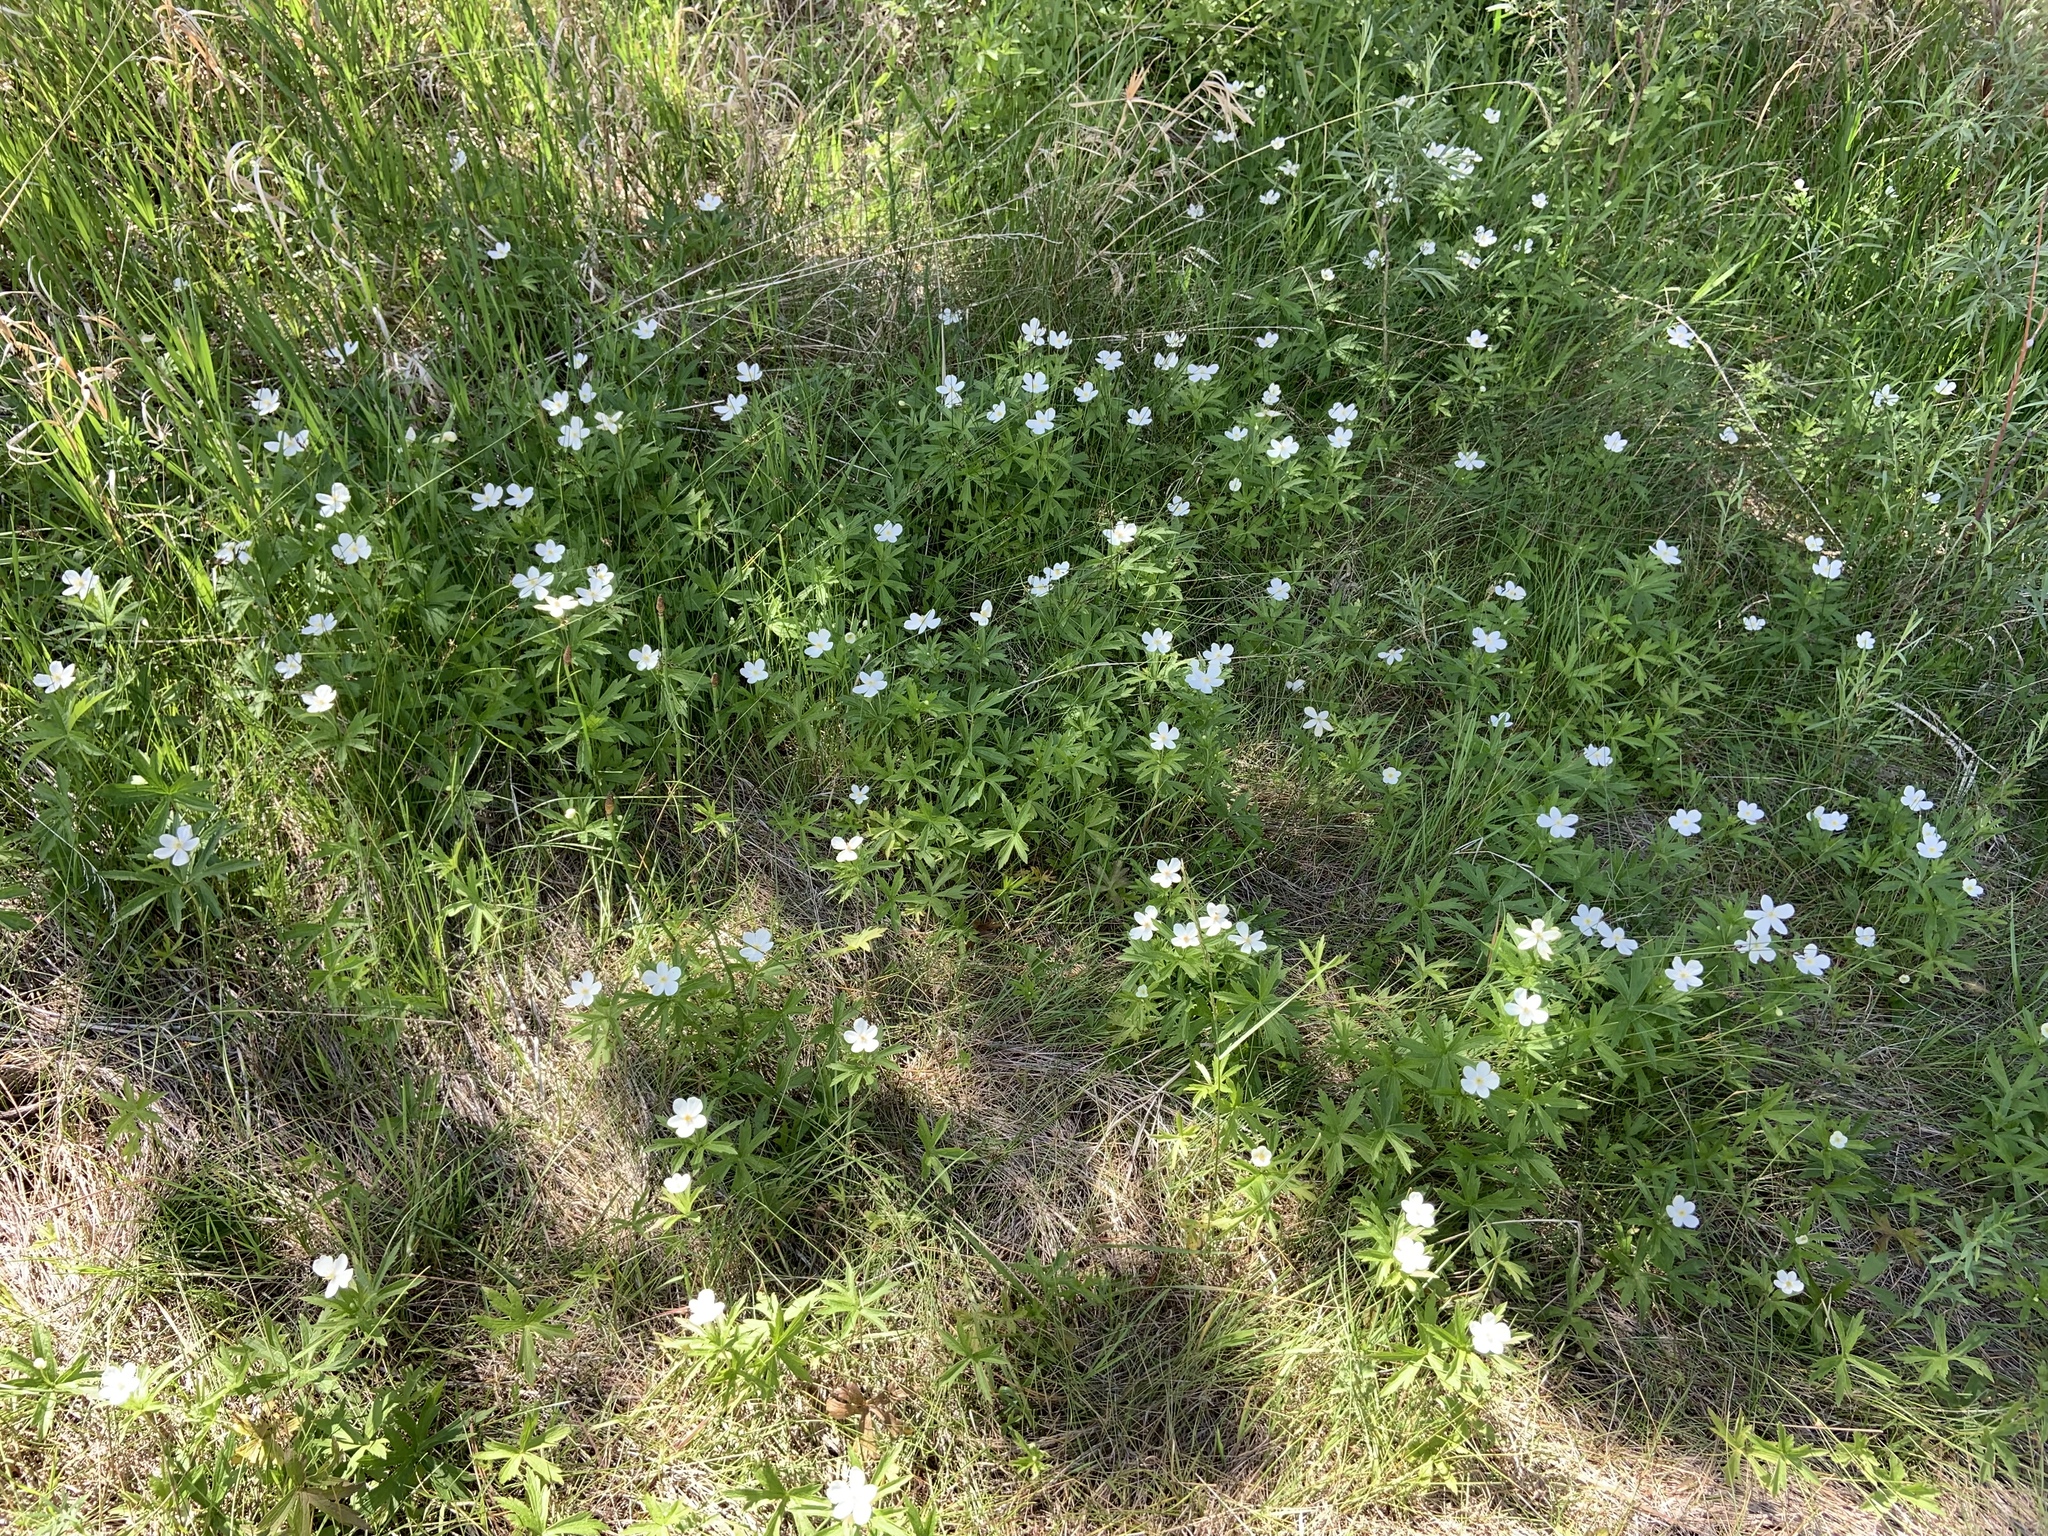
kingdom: Plantae
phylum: Tracheophyta
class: Magnoliopsida
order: Ranunculales
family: Ranunculaceae
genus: Anemonastrum
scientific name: Anemonastrum canadense
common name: Canada anemone
